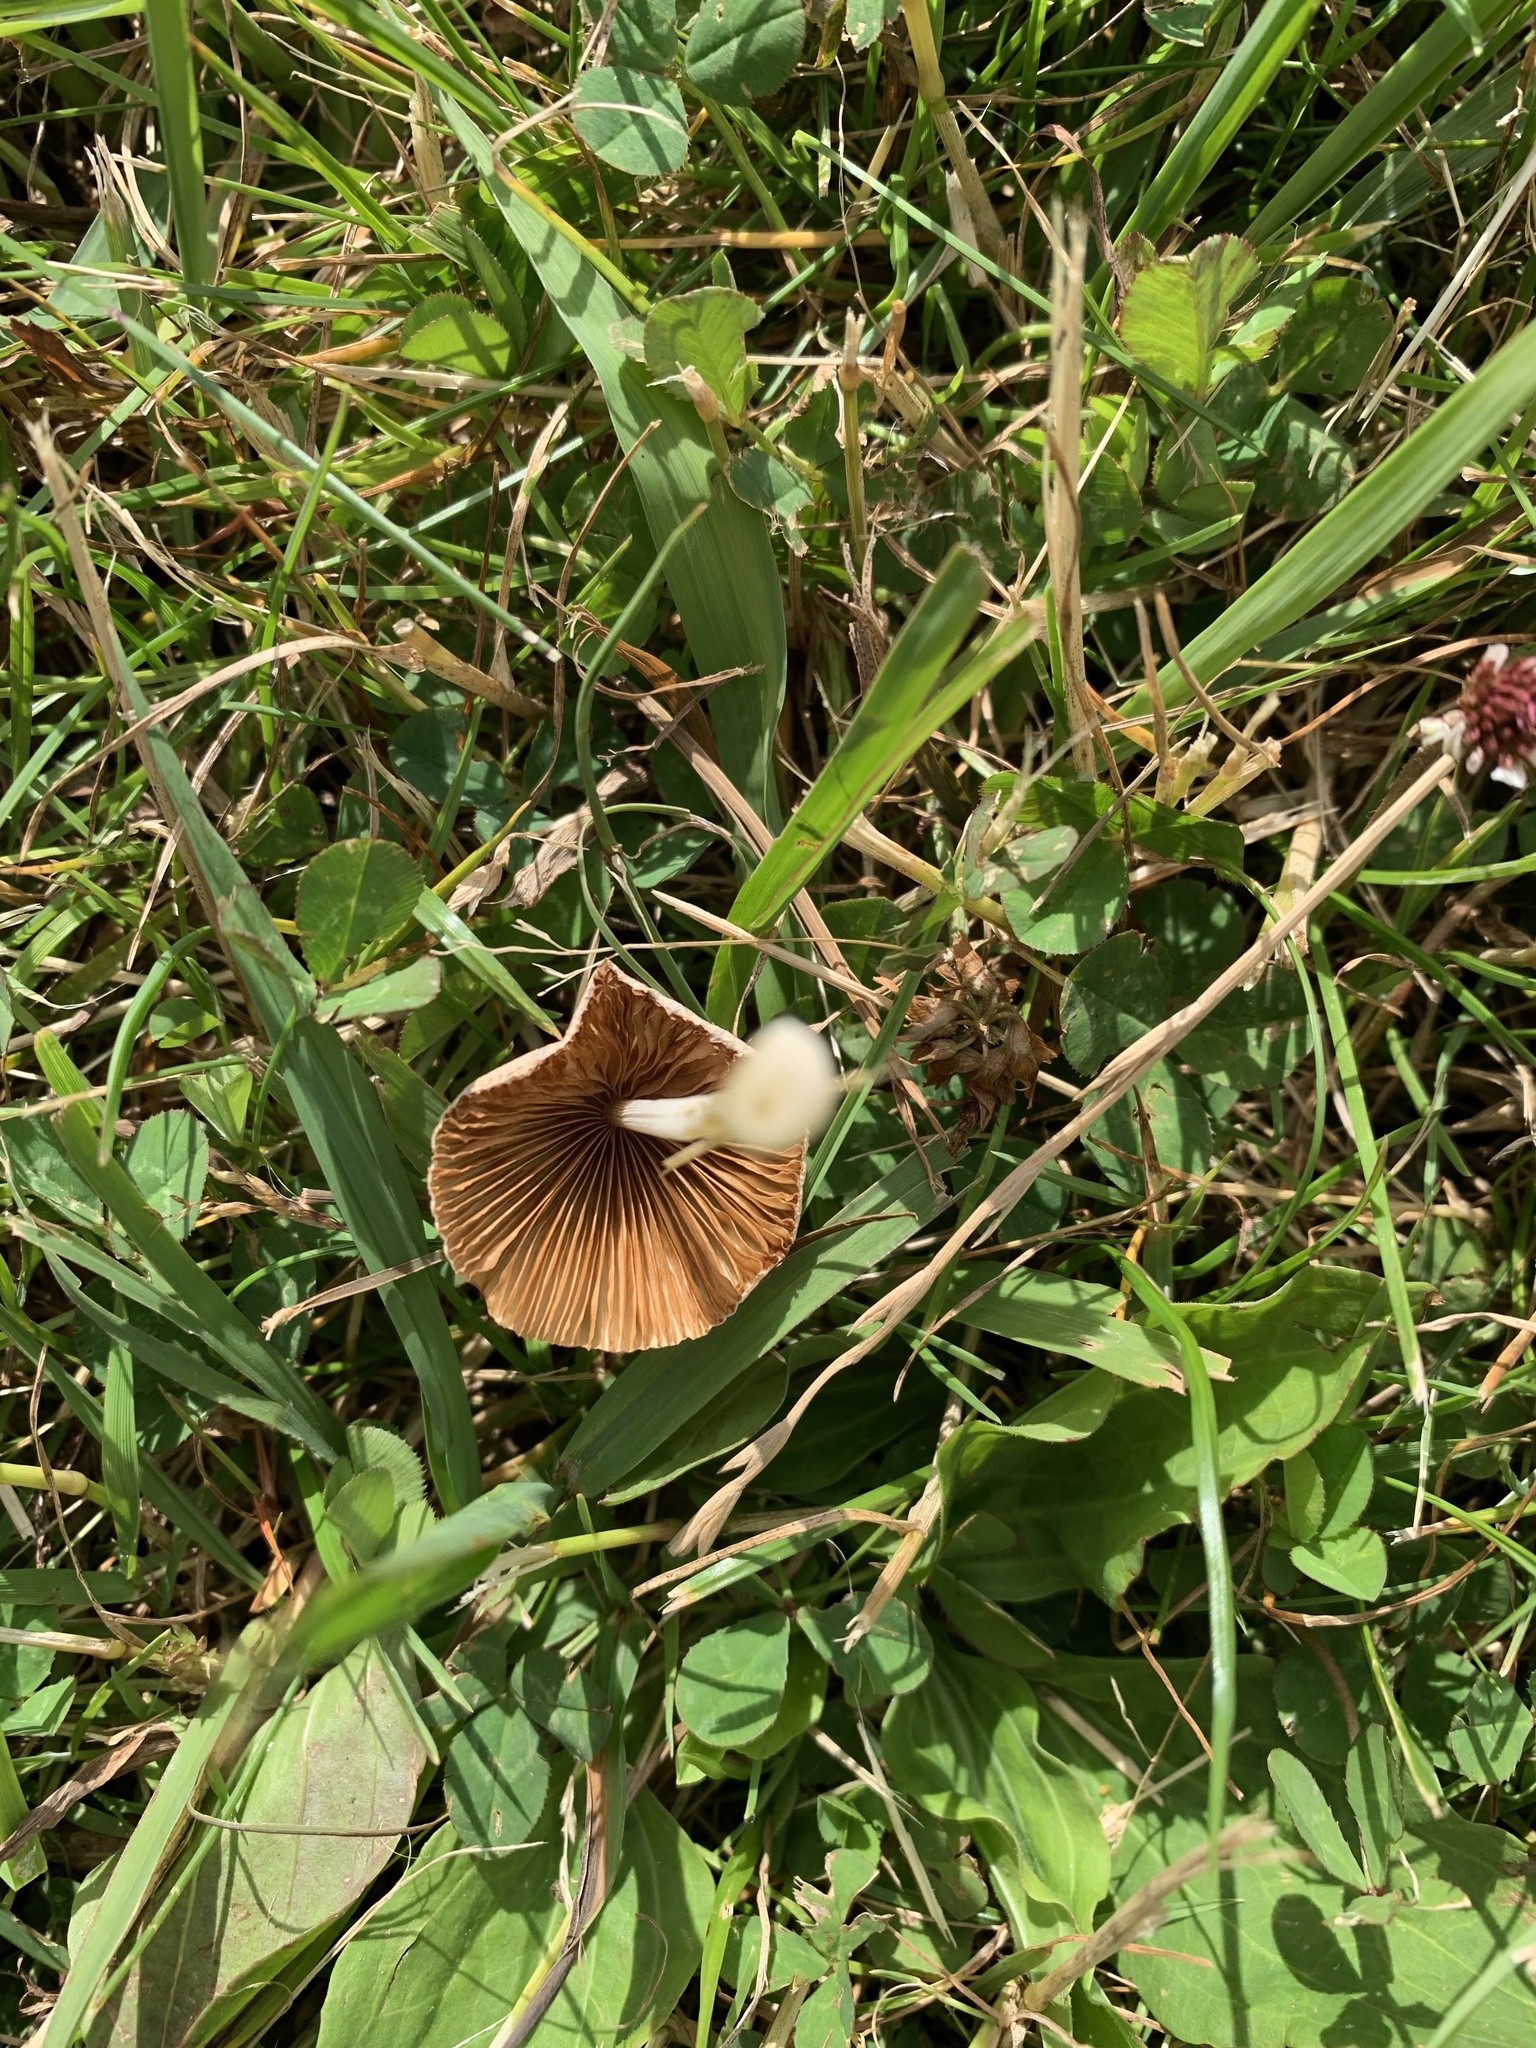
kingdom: Fungi
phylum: Basidiomycota
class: Agaricomycetes
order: Agaricales
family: Bolbitiaceae
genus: Conocybe
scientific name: Conocybe apala
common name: Milky conecap
